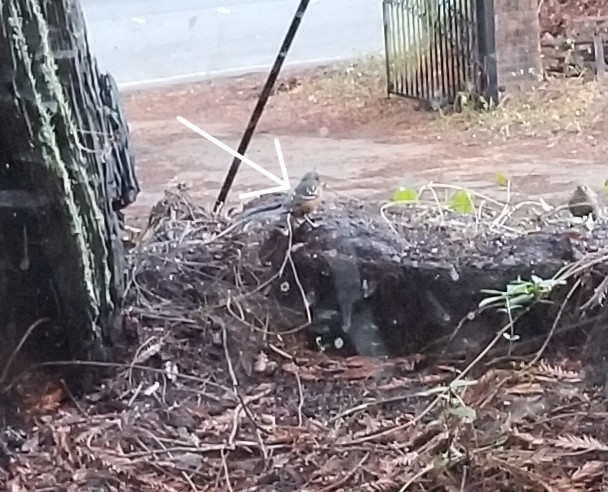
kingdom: Animalia
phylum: Chordata
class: Aves
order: Passeriformes
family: Passerellidae
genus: Pipilo
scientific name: Pipilo maculatus
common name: Spotted towhee
